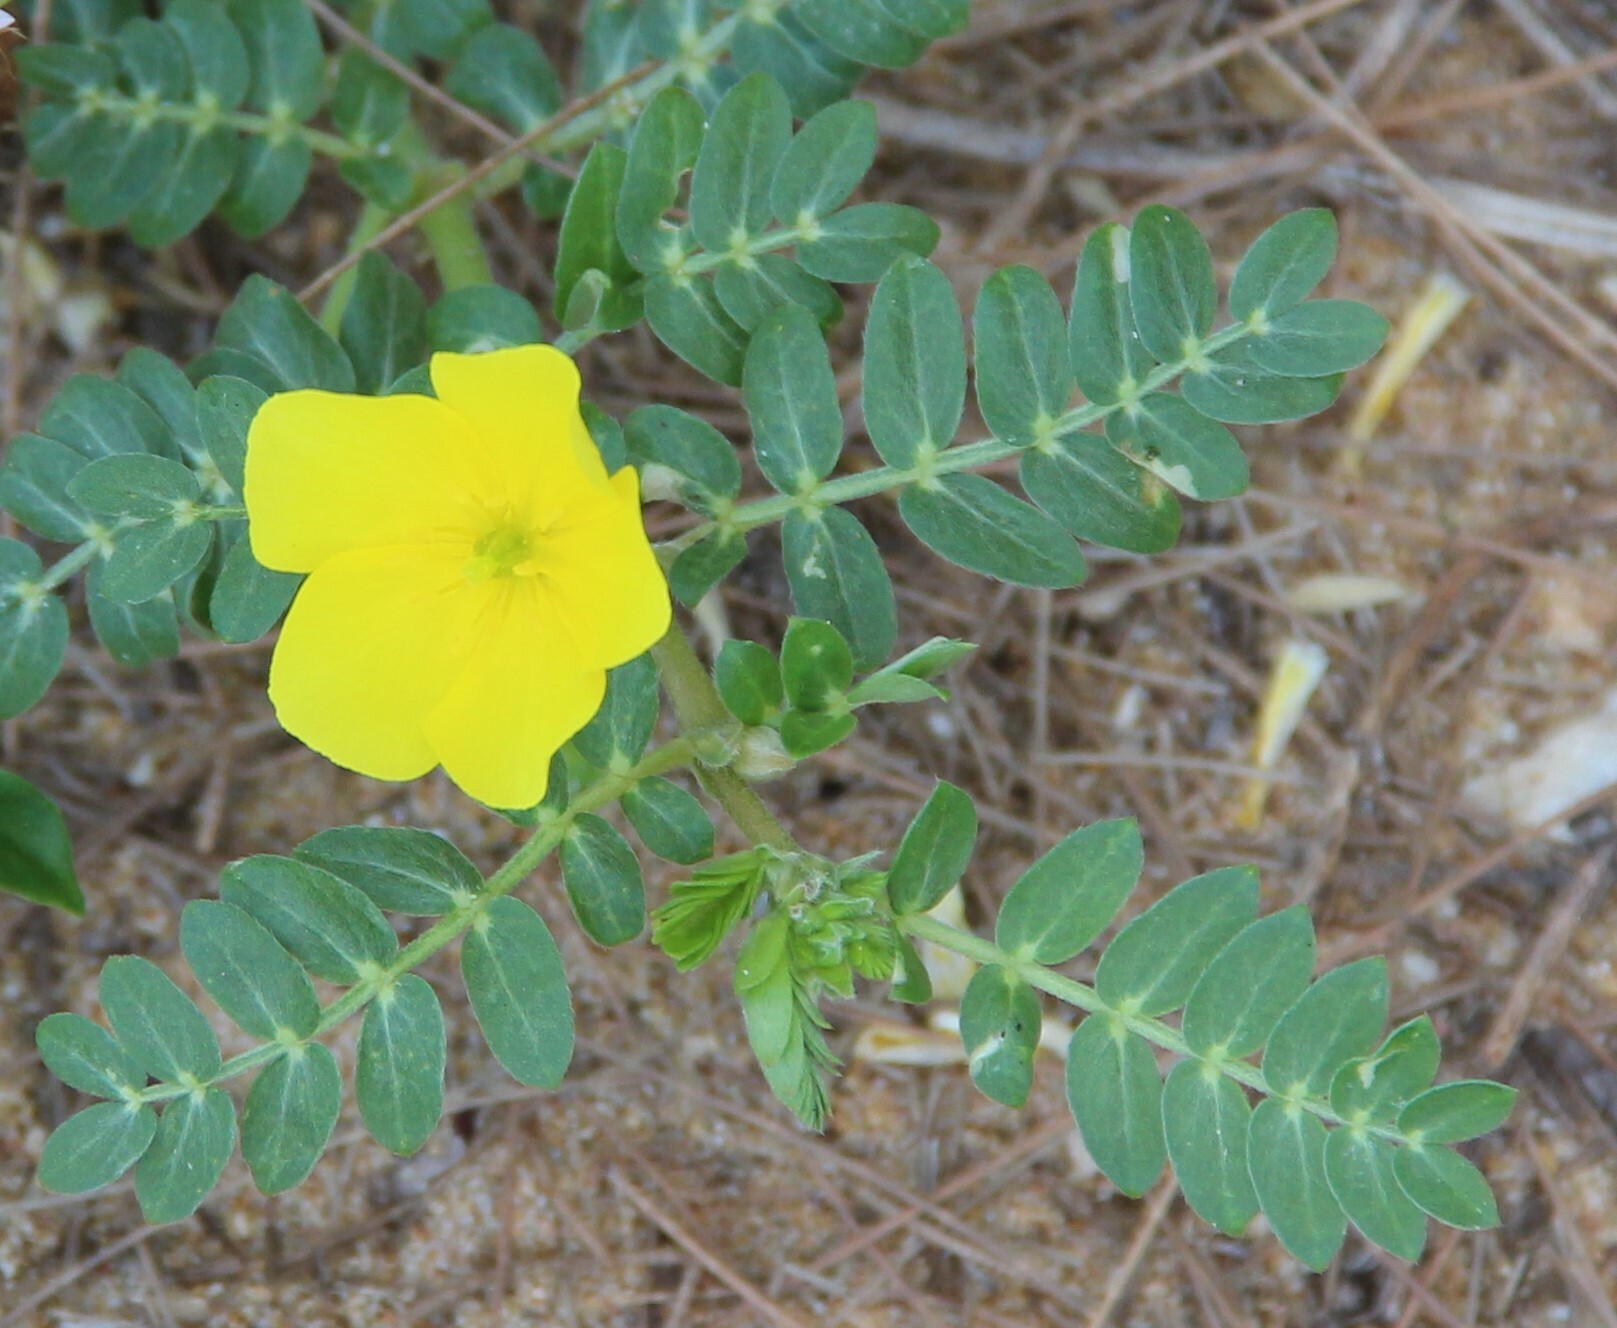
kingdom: Plantae
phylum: Tracheophyta
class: Magnoliopsida
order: Zygophyllales
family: Zygophyllaceae
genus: Tribulus
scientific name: Tribulus terrestris
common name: Puncturevine
